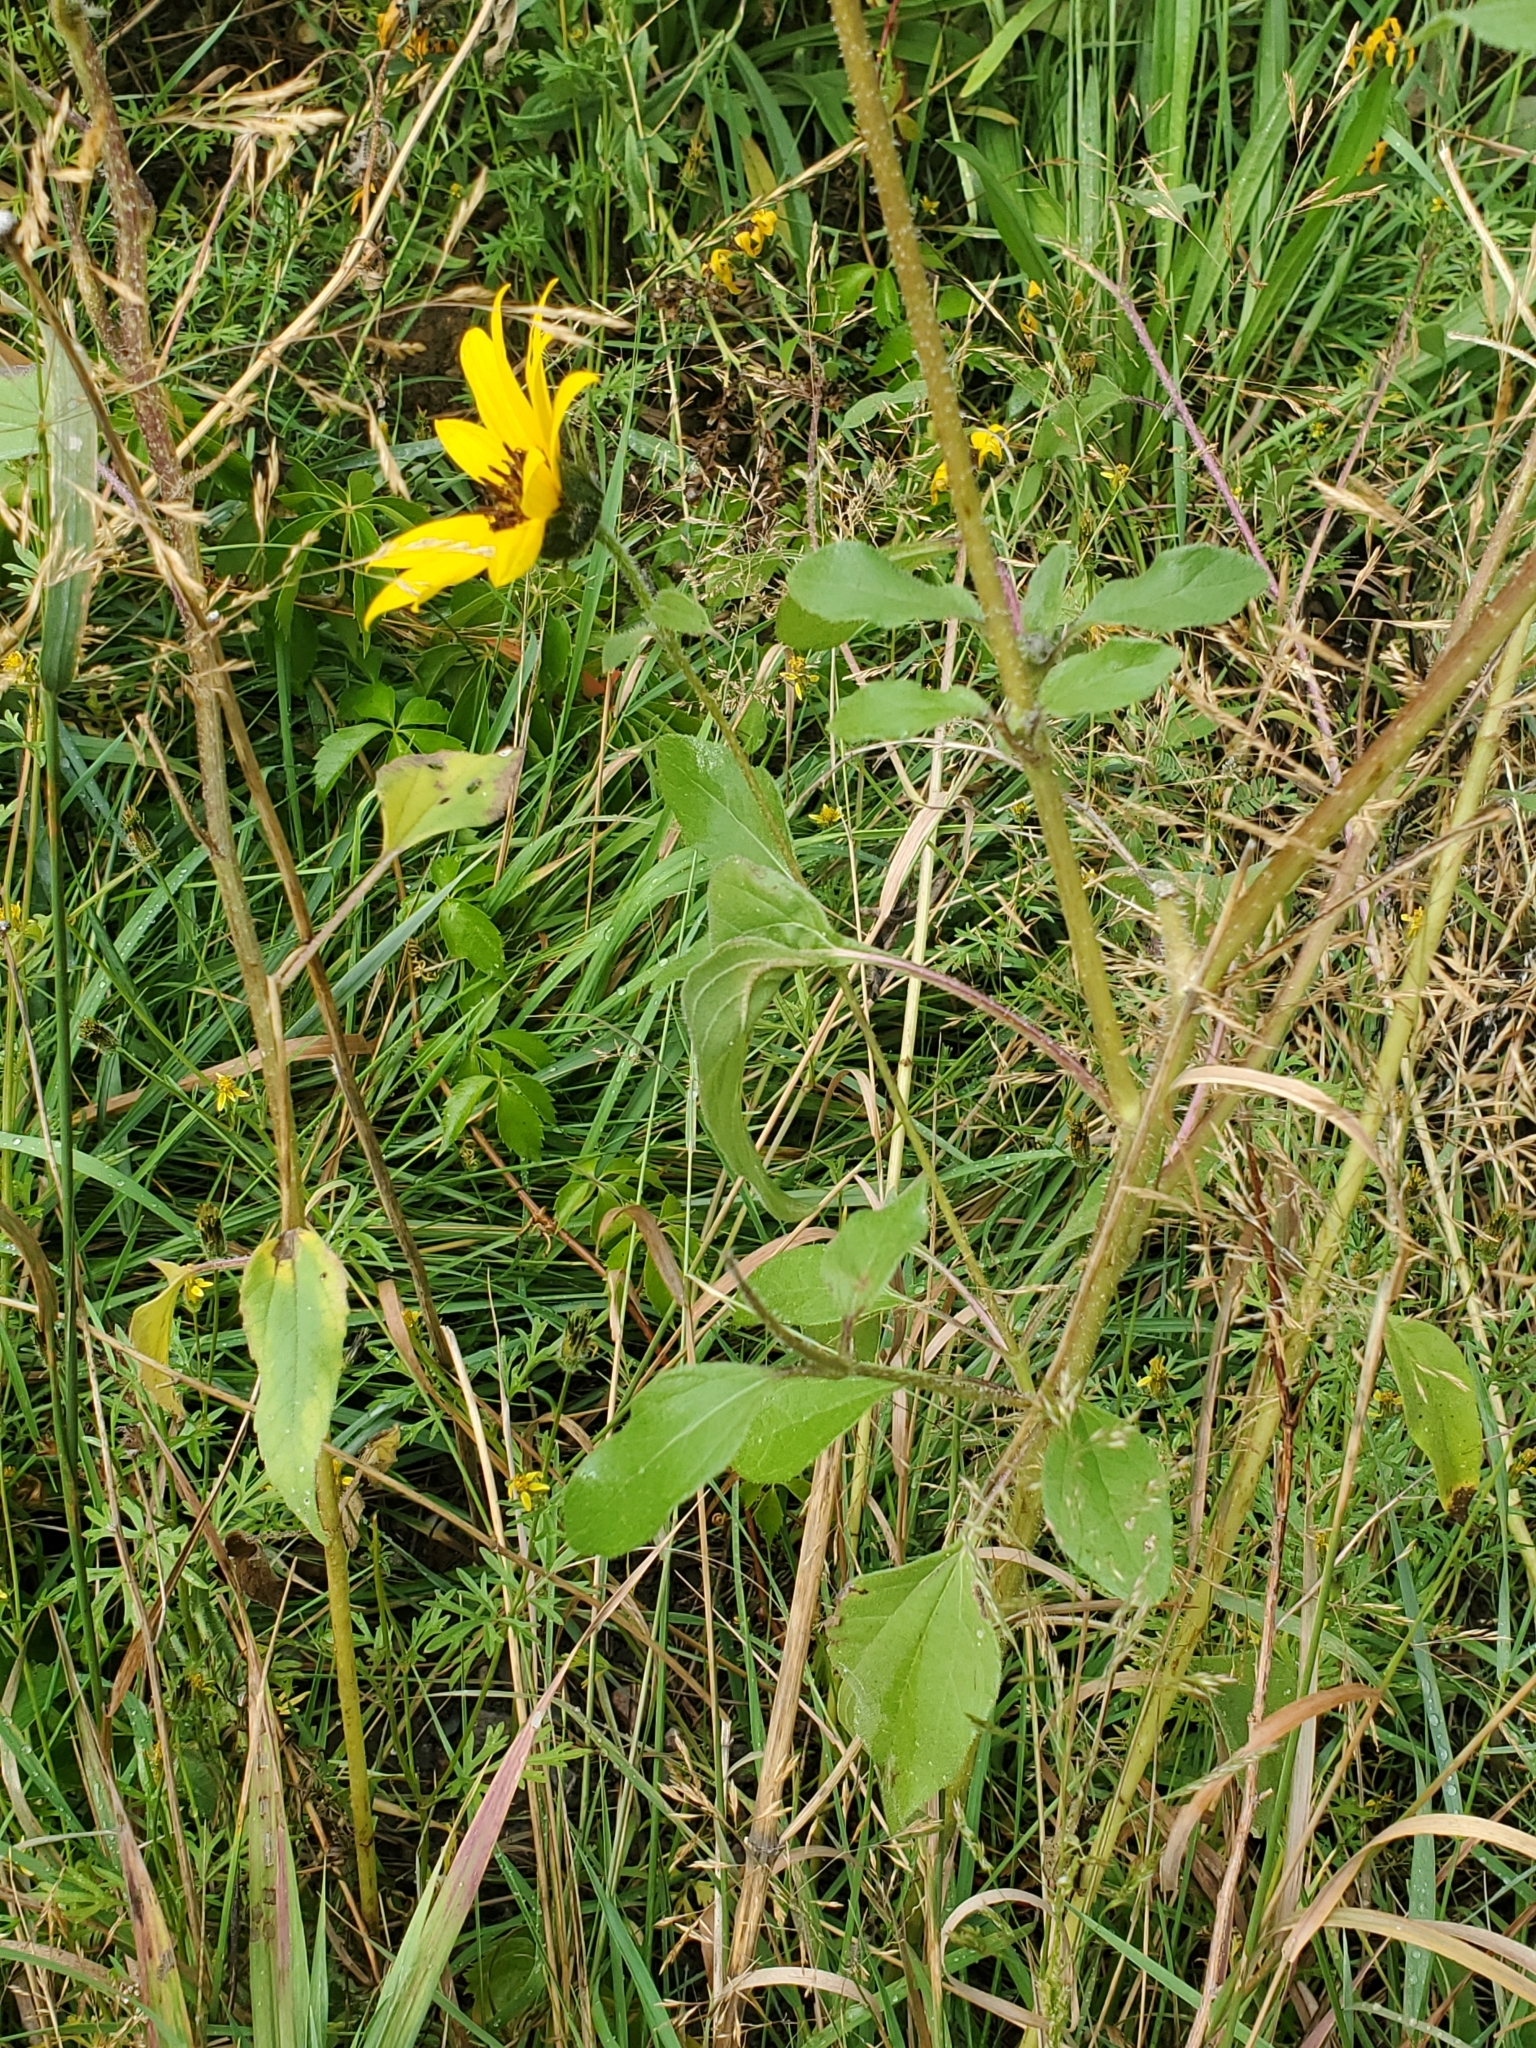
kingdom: Plantae
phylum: Tracheophyta
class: Magnoliopsida
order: Asterales
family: Asteraceae
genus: Helianthus
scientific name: Helianthus annuus
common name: Sunflower
